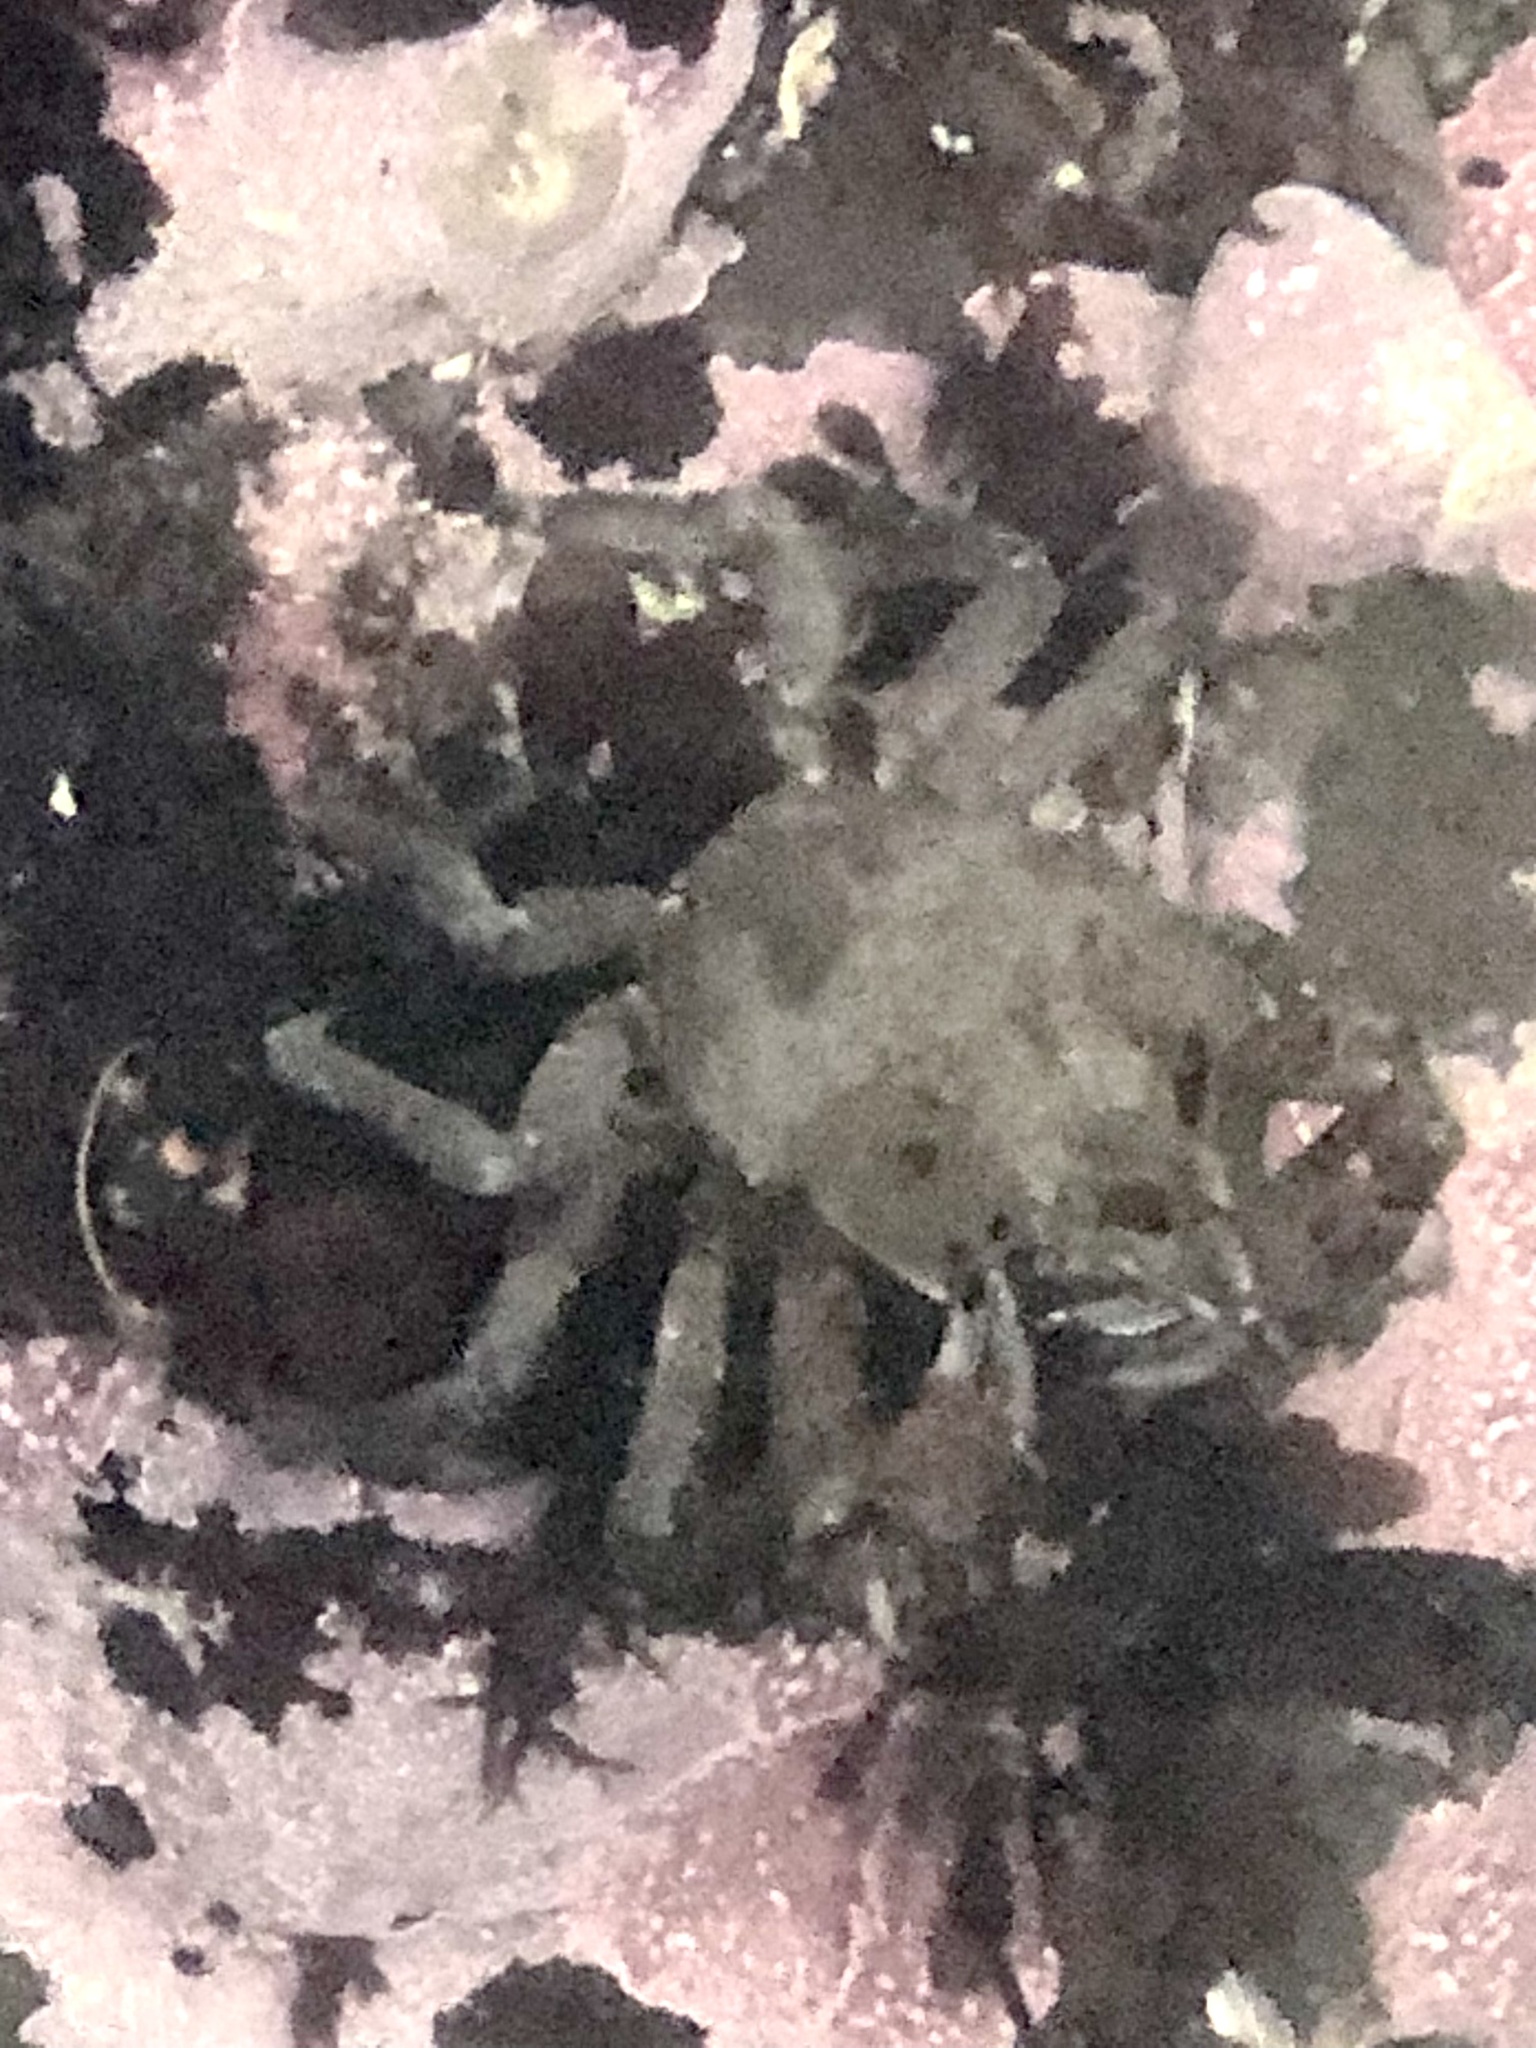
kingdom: Animalia
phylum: Arthropoda
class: Malacostraca
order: Decapoda
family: Epialtidae
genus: Pugettia
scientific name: Pugettia producta
